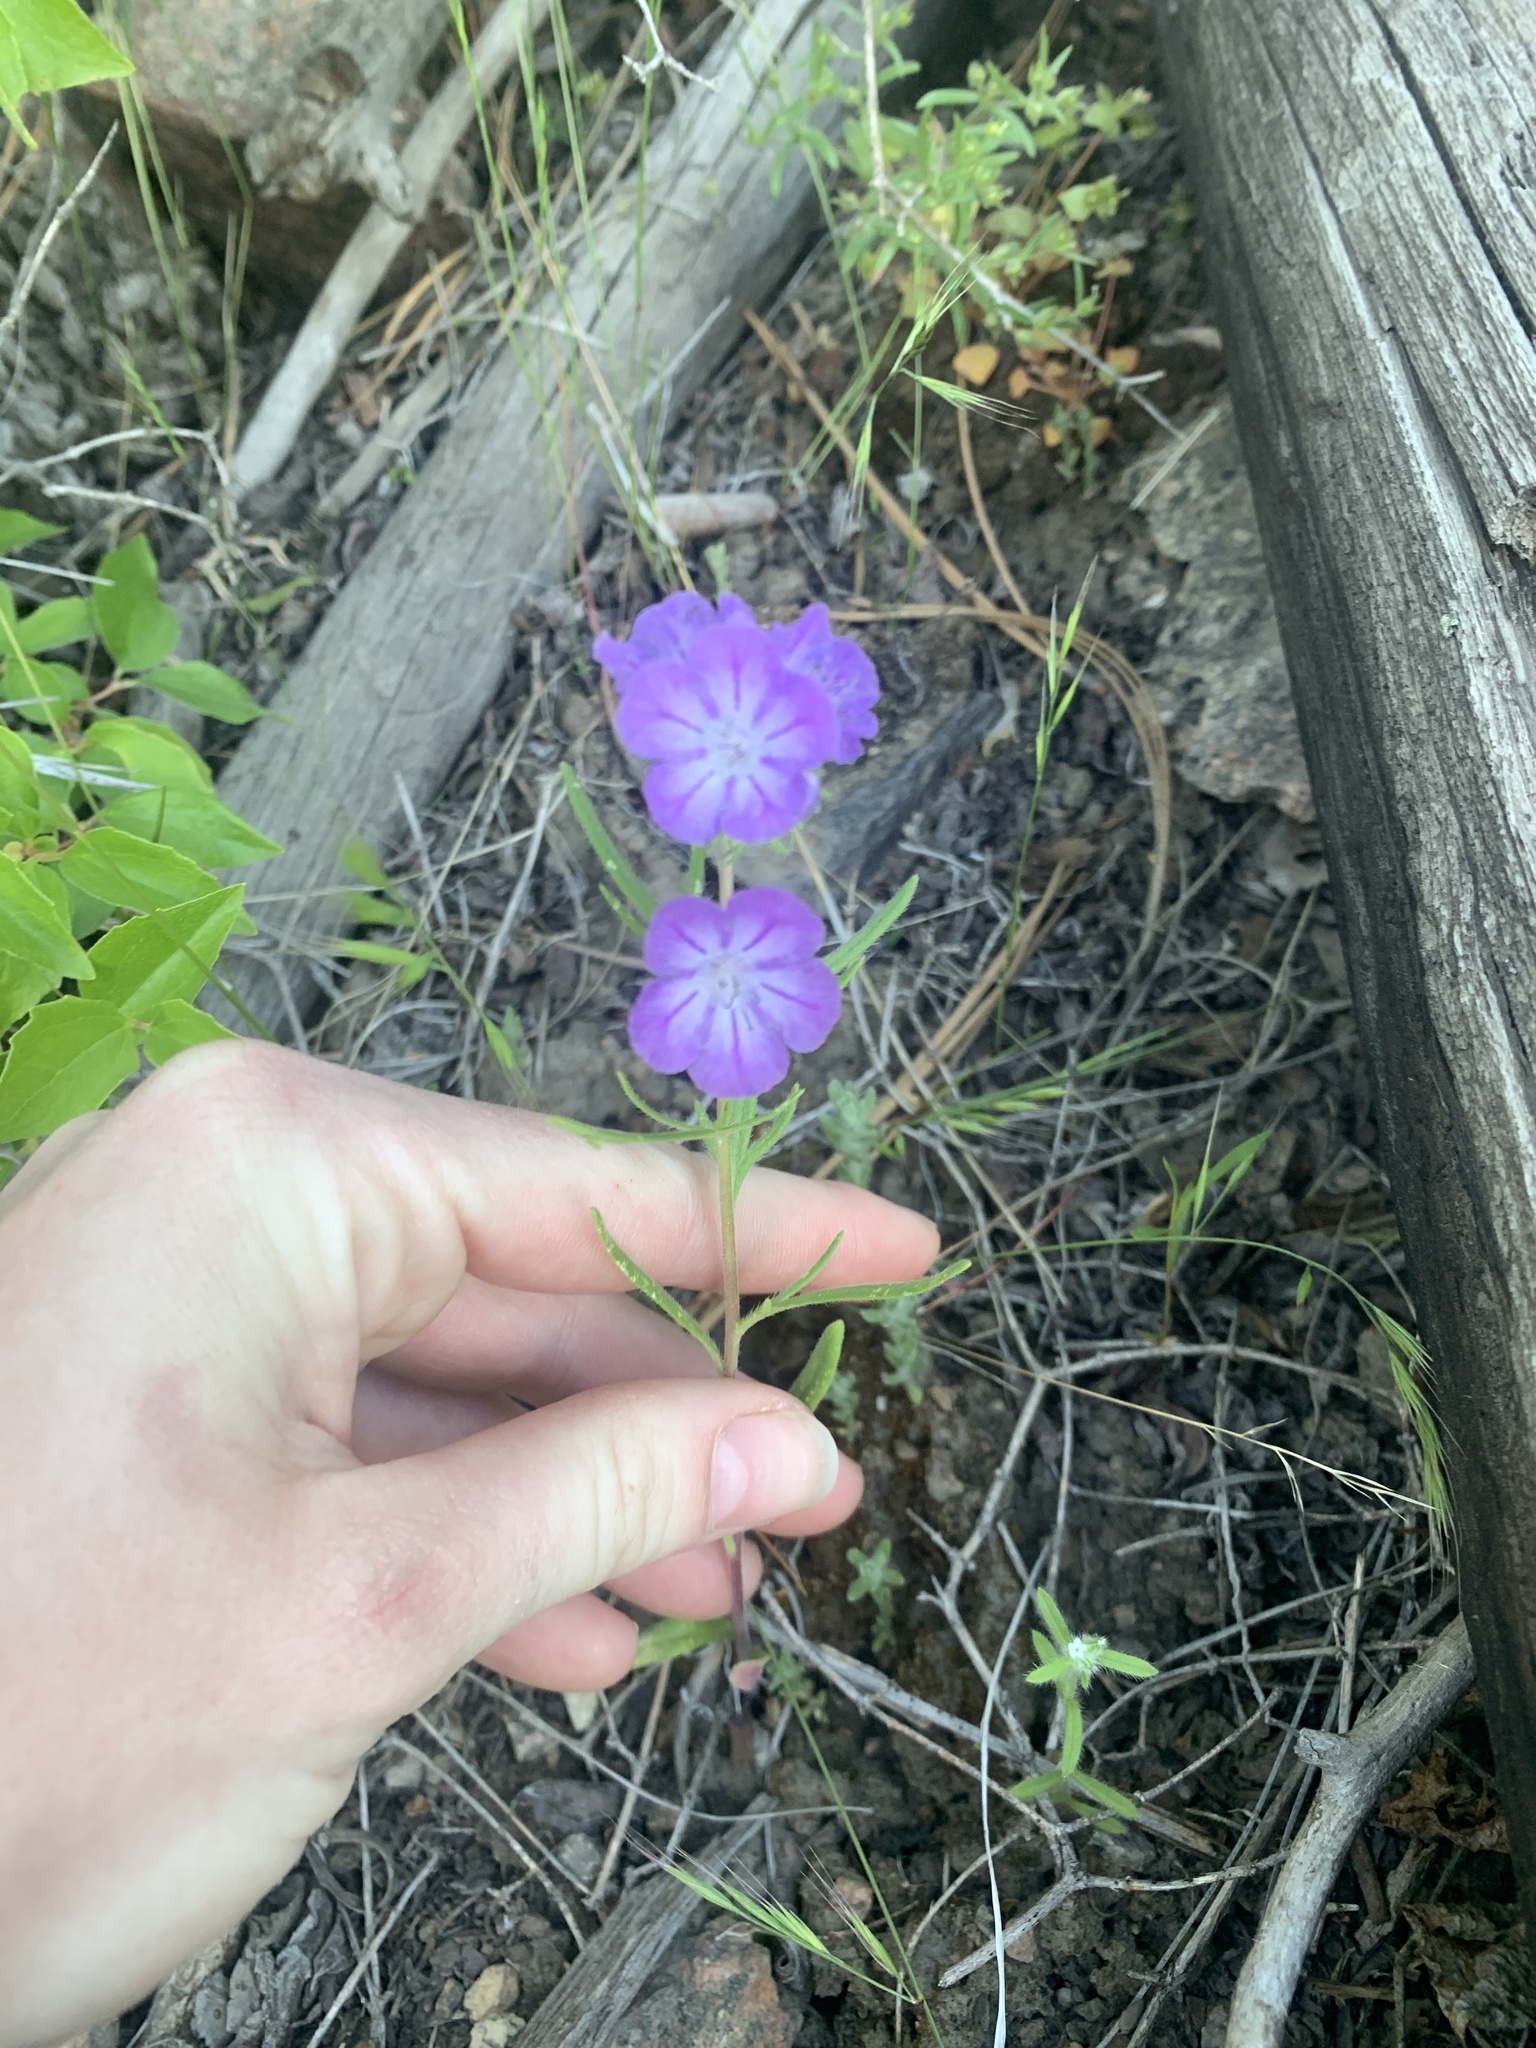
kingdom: Plantae
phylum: Tracheophyta
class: Magnoliopsida
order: Boraginales
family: Hydrophyllaceae
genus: Phacelia
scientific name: Phacelia linearis
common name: Linear-leaved phacelia
